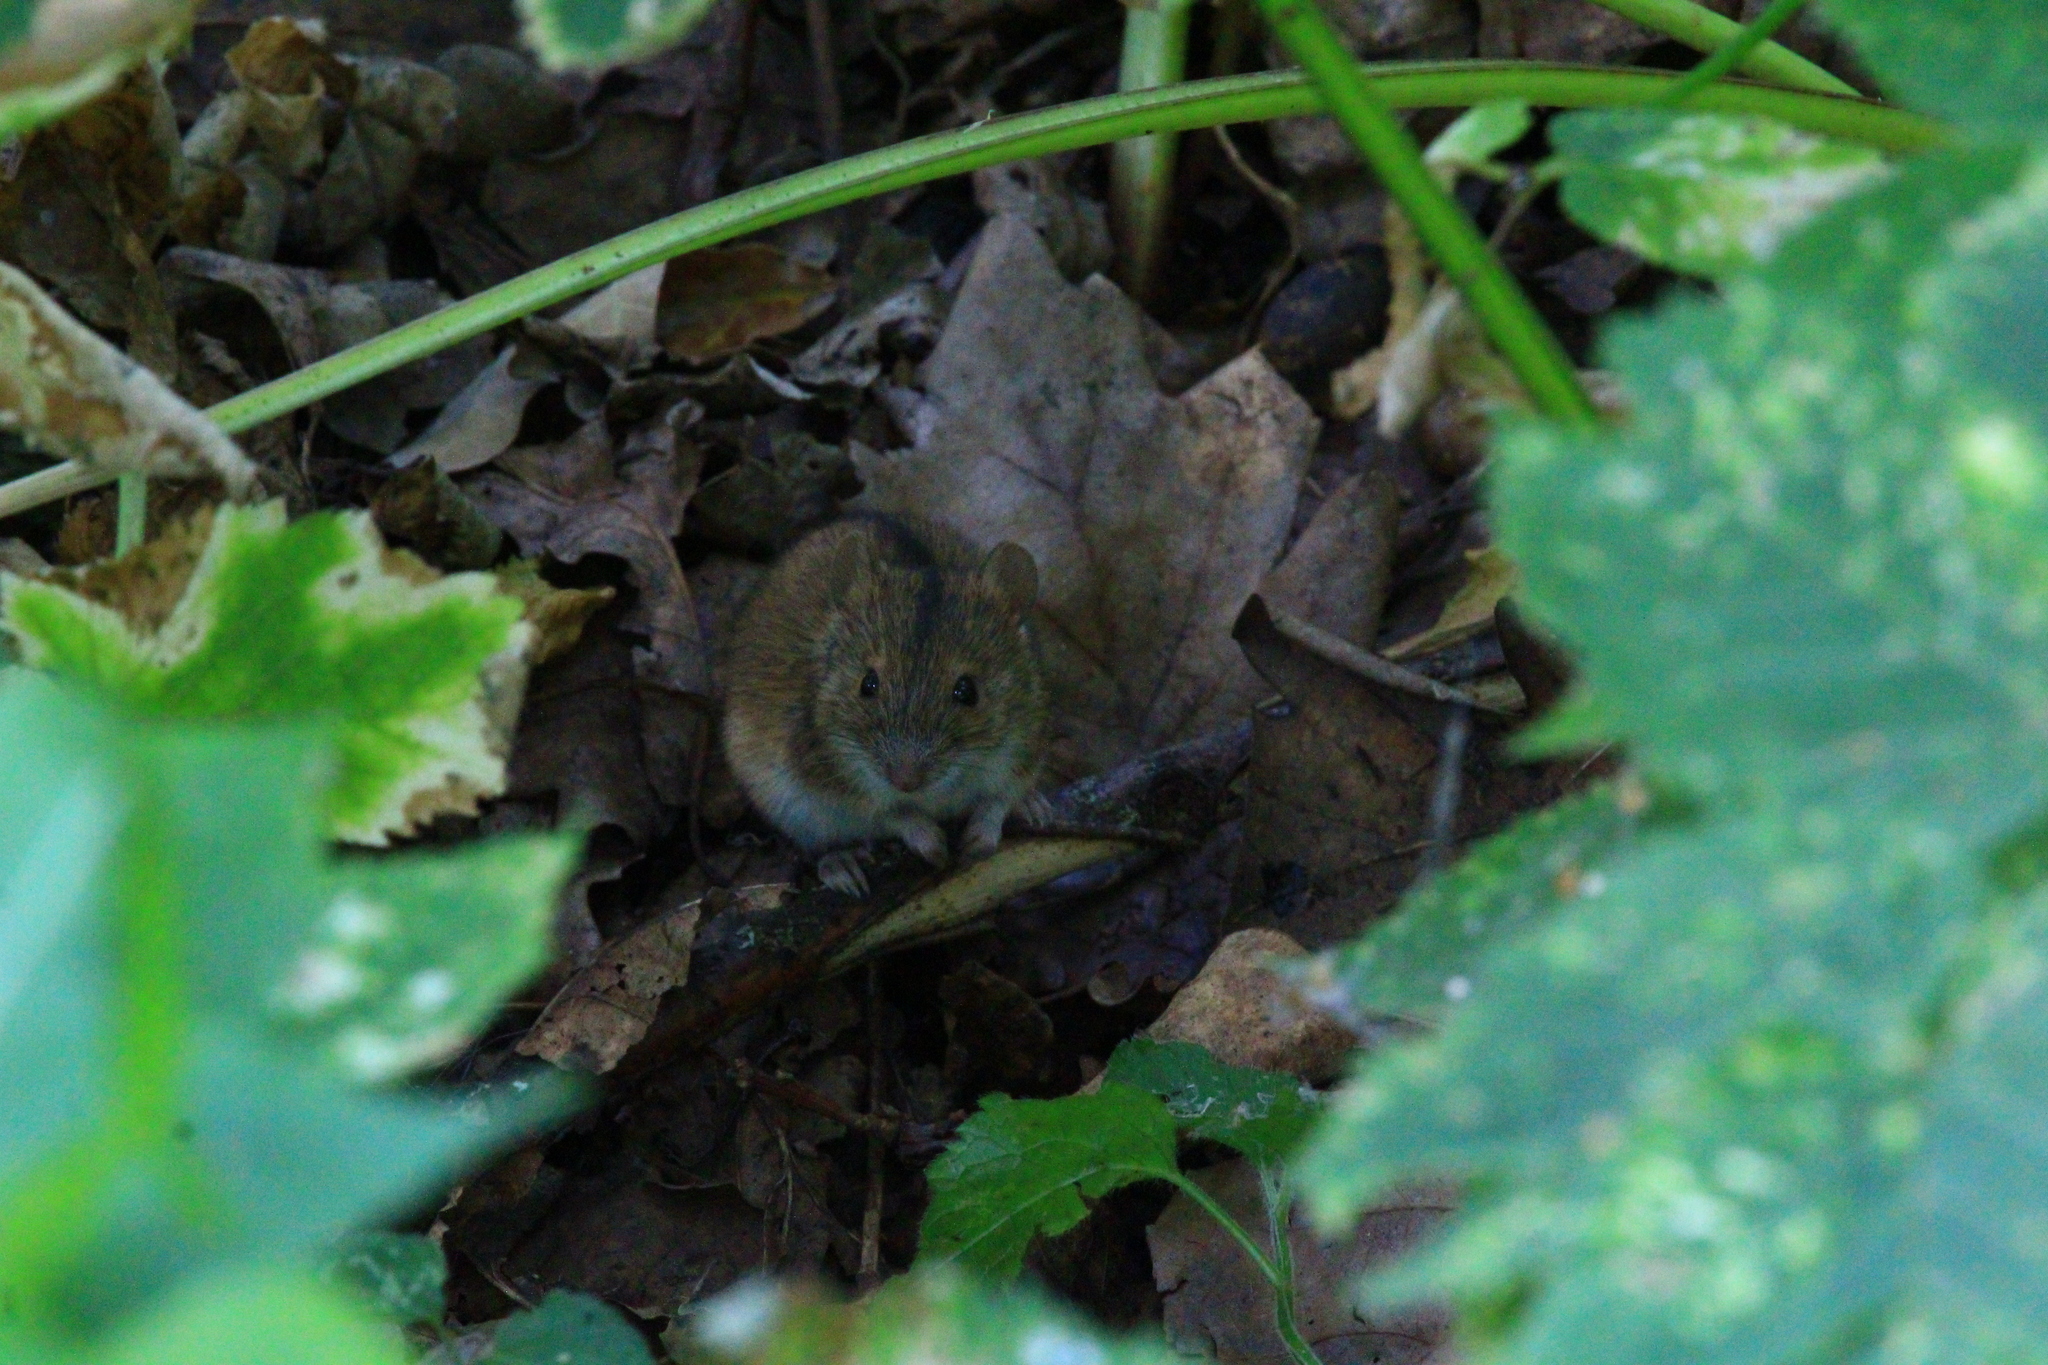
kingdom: Animalia
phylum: Chordata
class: Mammalia
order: Rodentia
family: Muridae
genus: Apodemus
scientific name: Apodemus agrarius
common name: Striped field mouse
